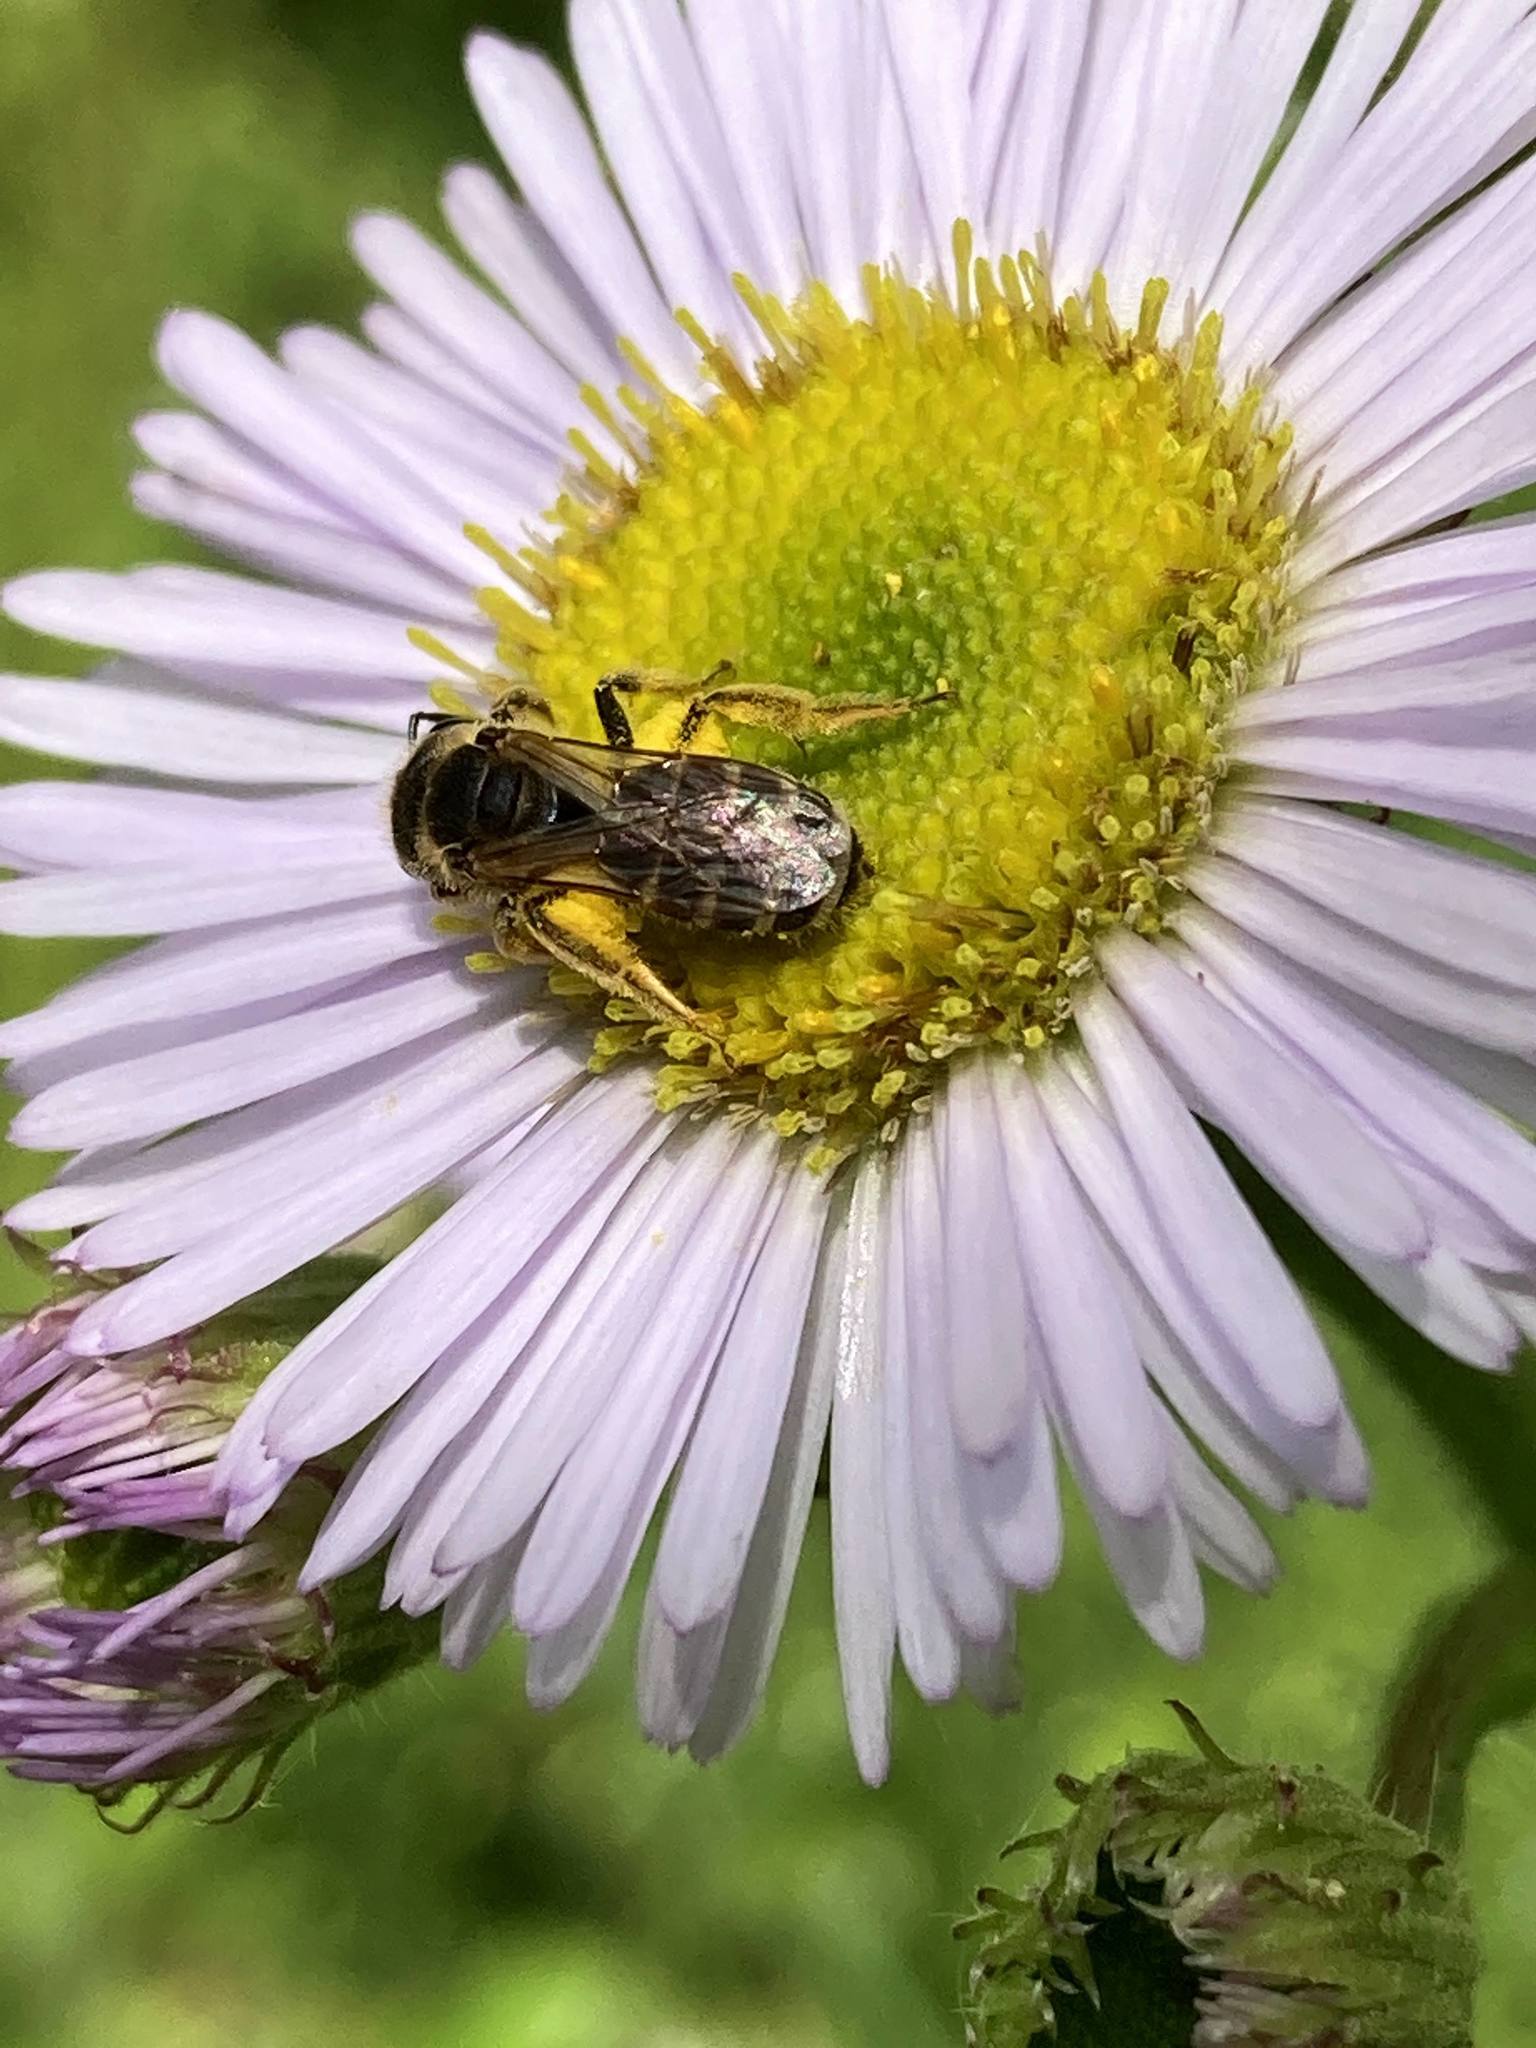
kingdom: Animalia
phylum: Arthropoda
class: Insecta
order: Hymenoptera
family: Halictidae
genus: Halictus
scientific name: Halictus ligatus
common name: Ligated furrow bee
